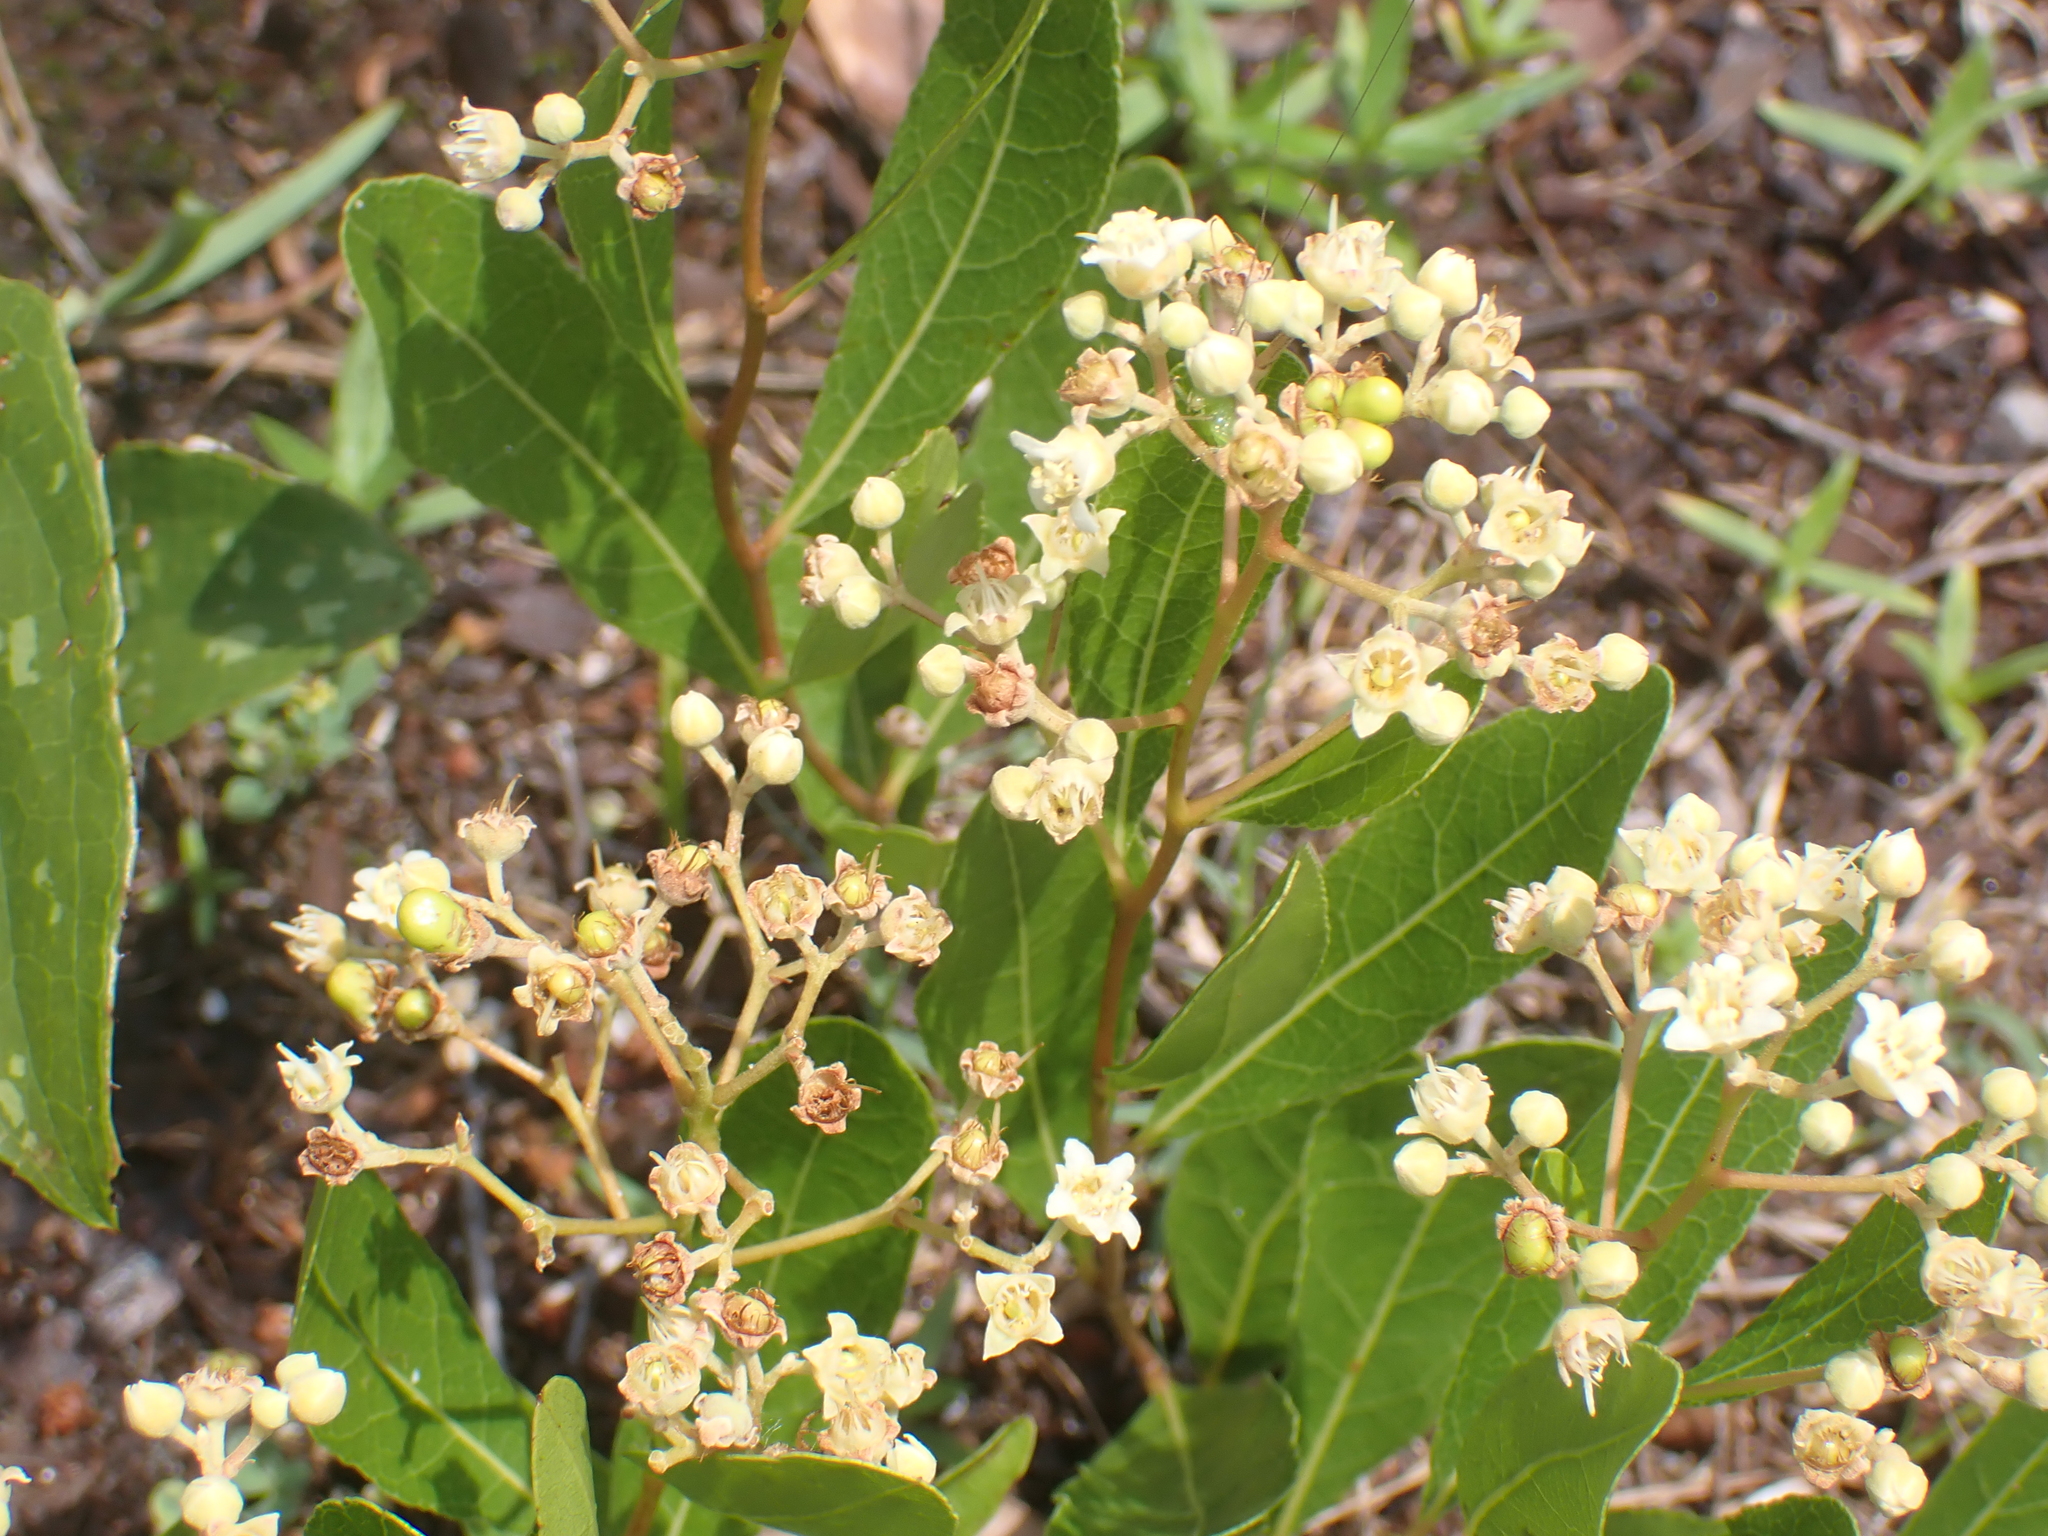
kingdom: Plantae
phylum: Tracheophyta
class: Magnoliopsida
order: Malpighiales
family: Chrysobalanaceae
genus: Geobalanus
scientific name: Geobalanus oblongifolius
